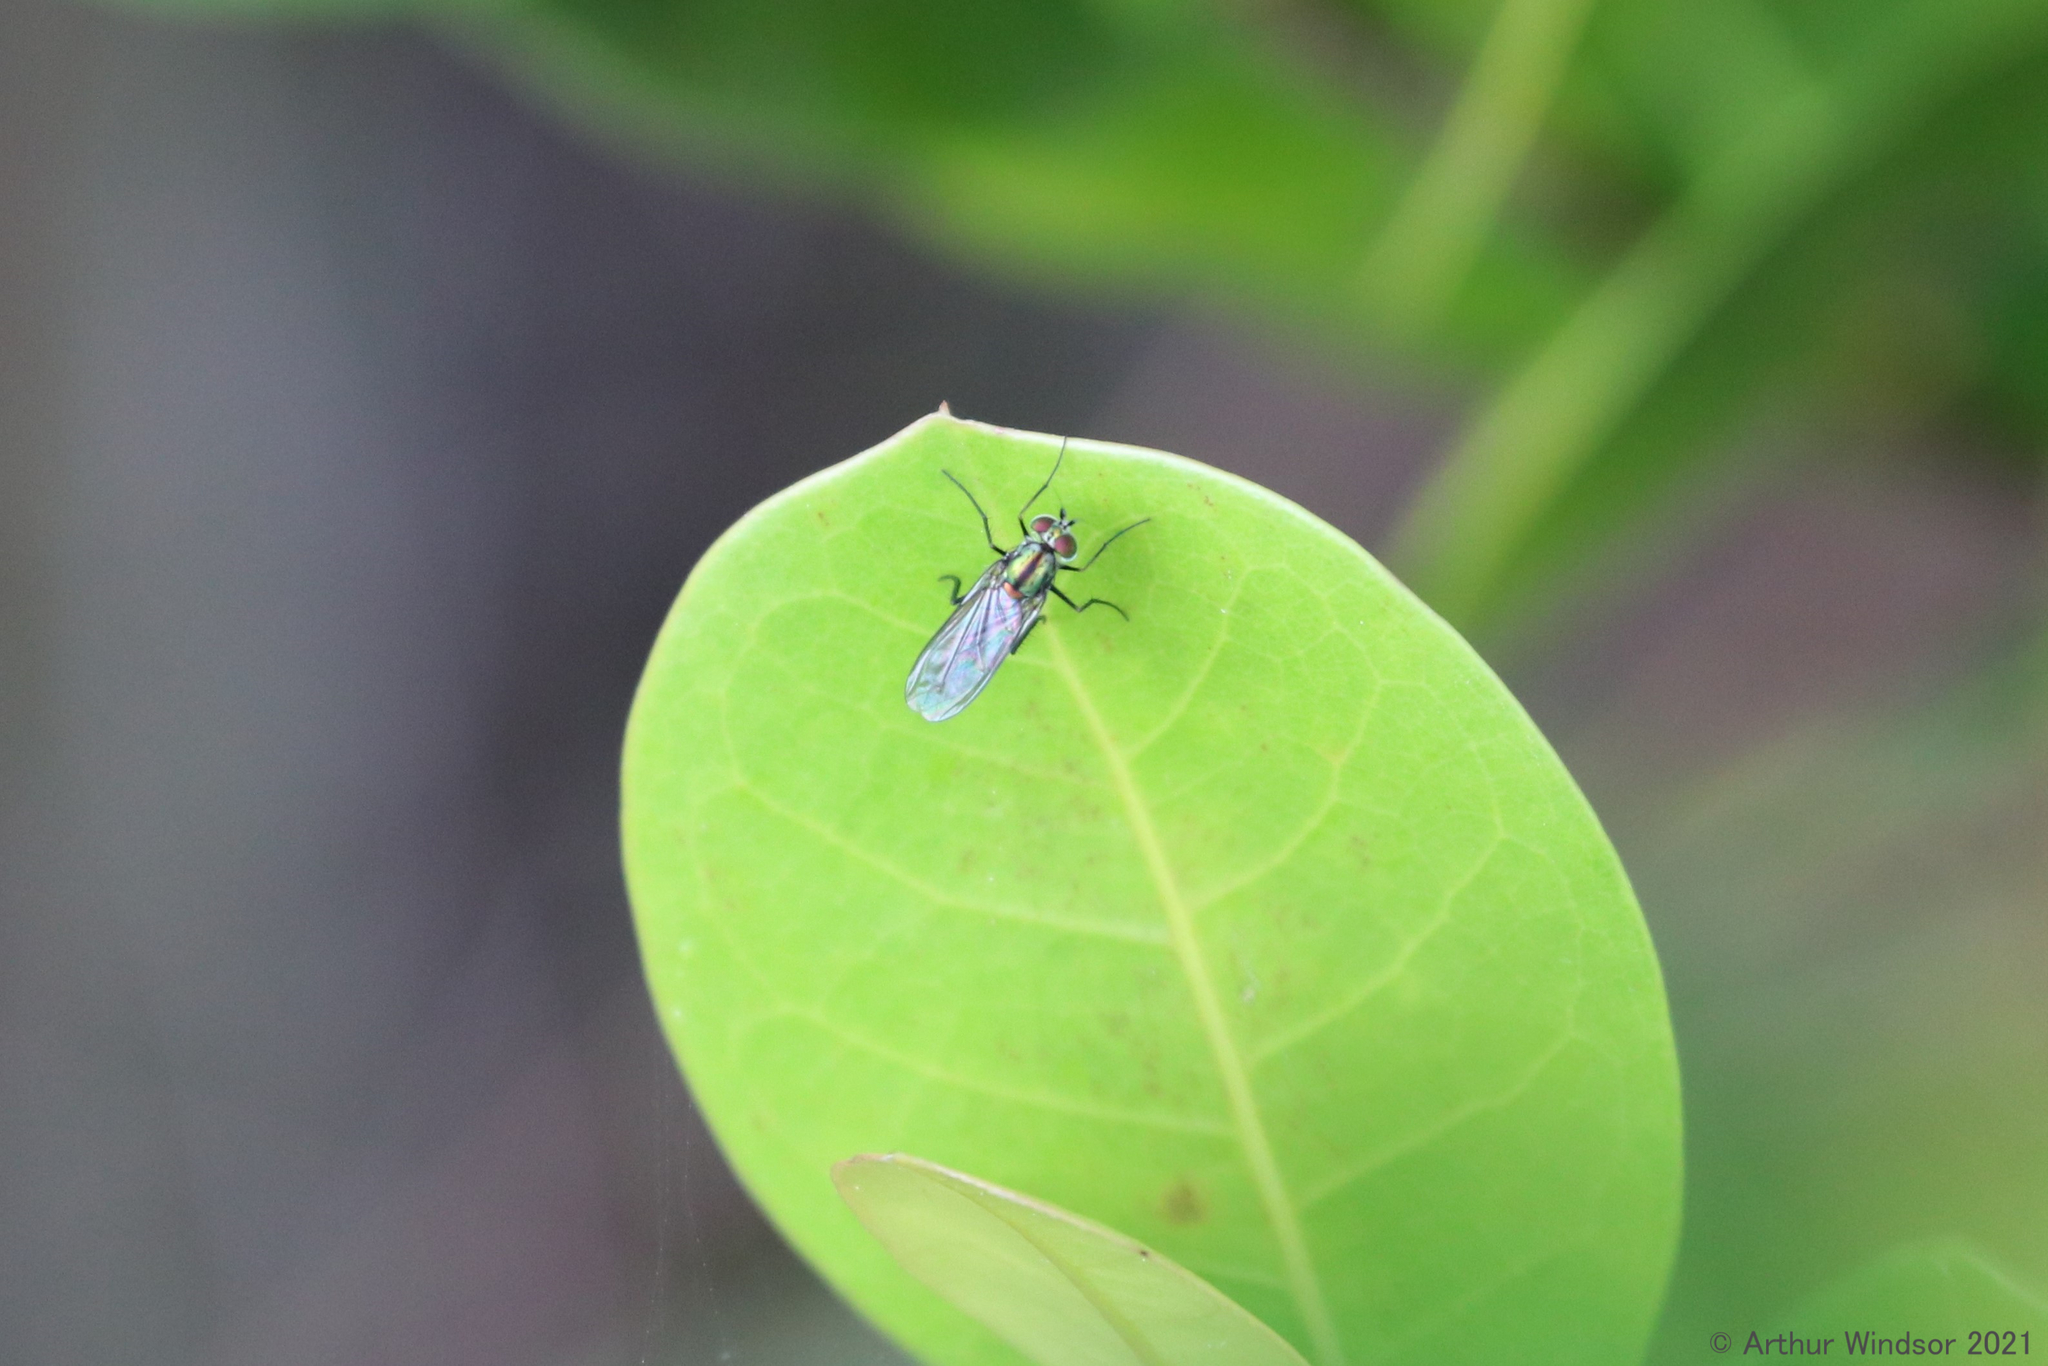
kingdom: Animalia
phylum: Arthropoda
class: Insecta
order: Diptera
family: Dolichopodidae
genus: Plagioneurus
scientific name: Plagioneurus univittatus
